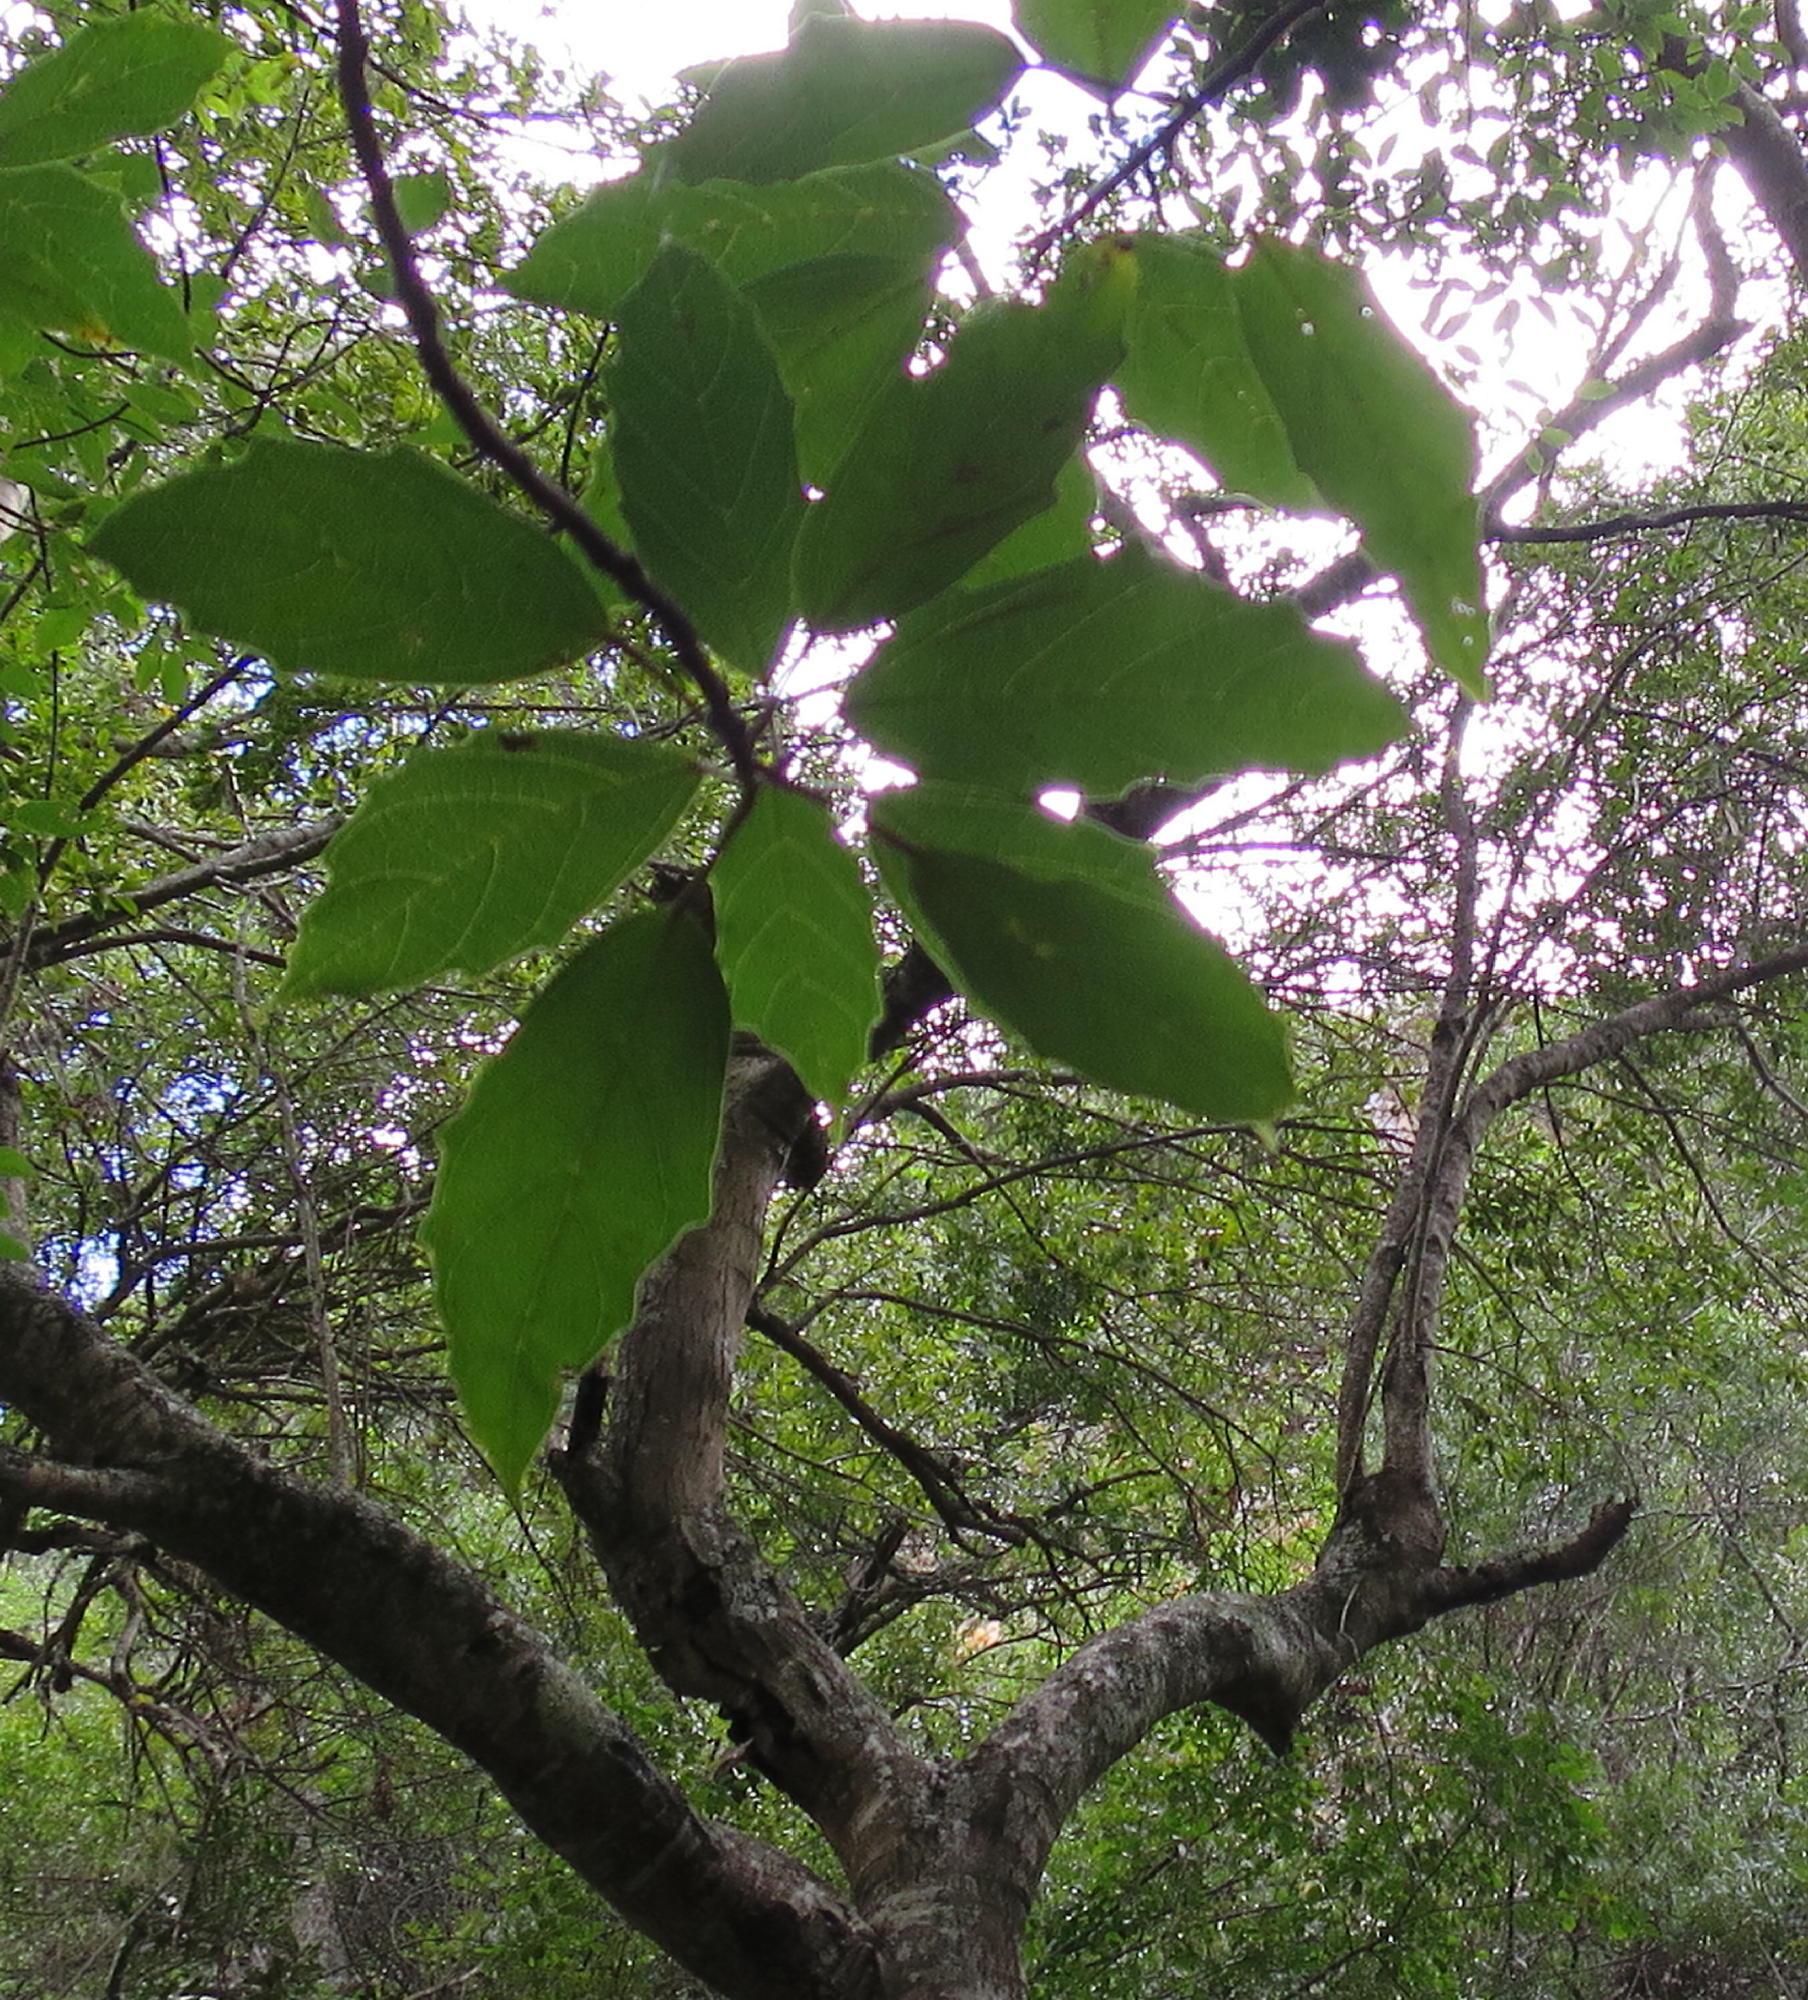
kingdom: Plantae
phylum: Tracheophyta
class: Magnoliopsida
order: Rosales
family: Moraceae
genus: Ficus
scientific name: Ficus sur
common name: Cape fig
